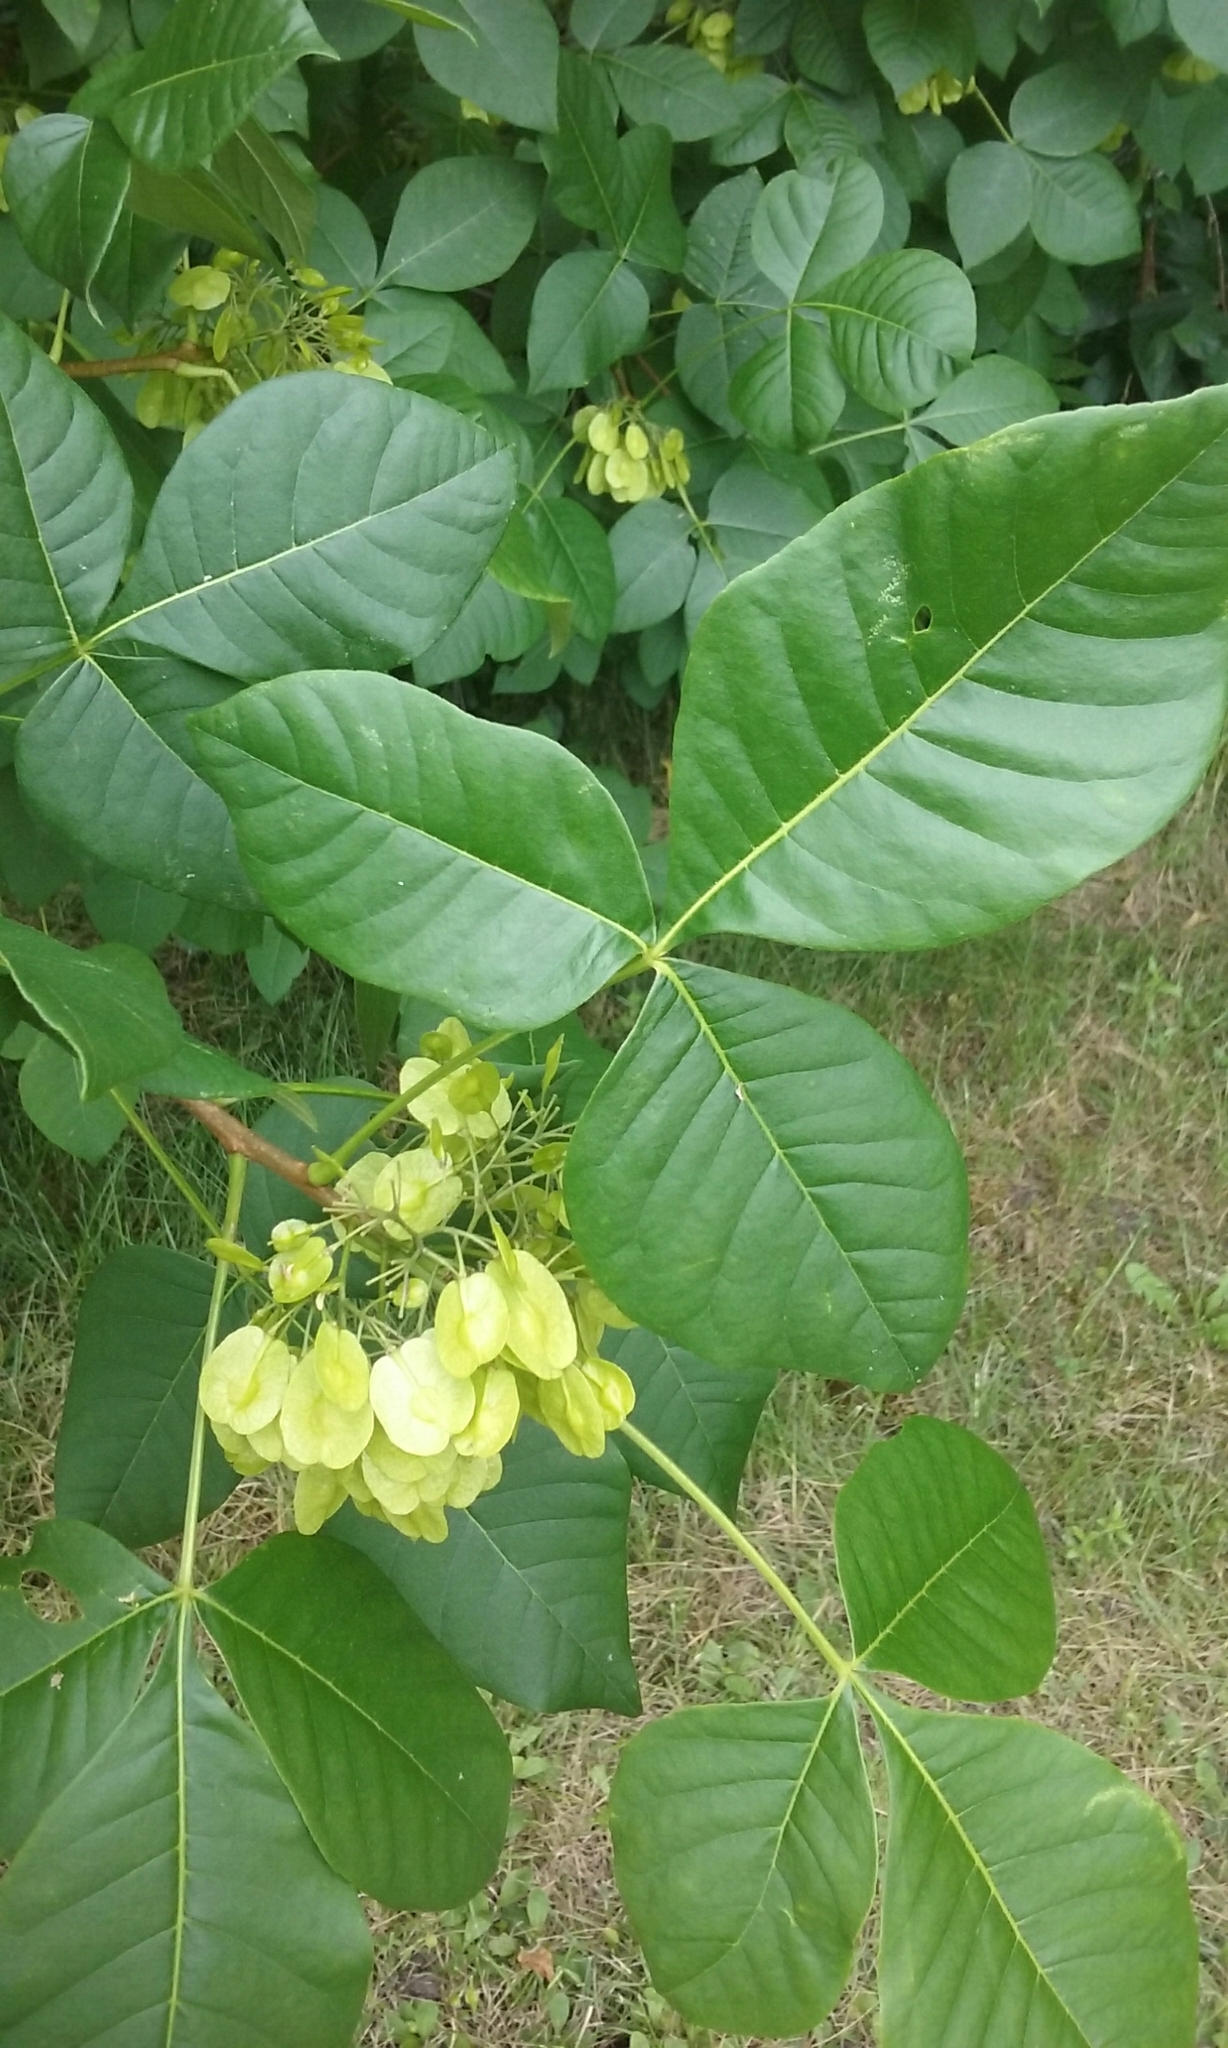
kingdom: Plantae
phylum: Tracheophyta
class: Magnoliopsida
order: Sapindales
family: Rutaceae
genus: Ptelea
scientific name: Ptelea trifoliata
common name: Common hop-tree
